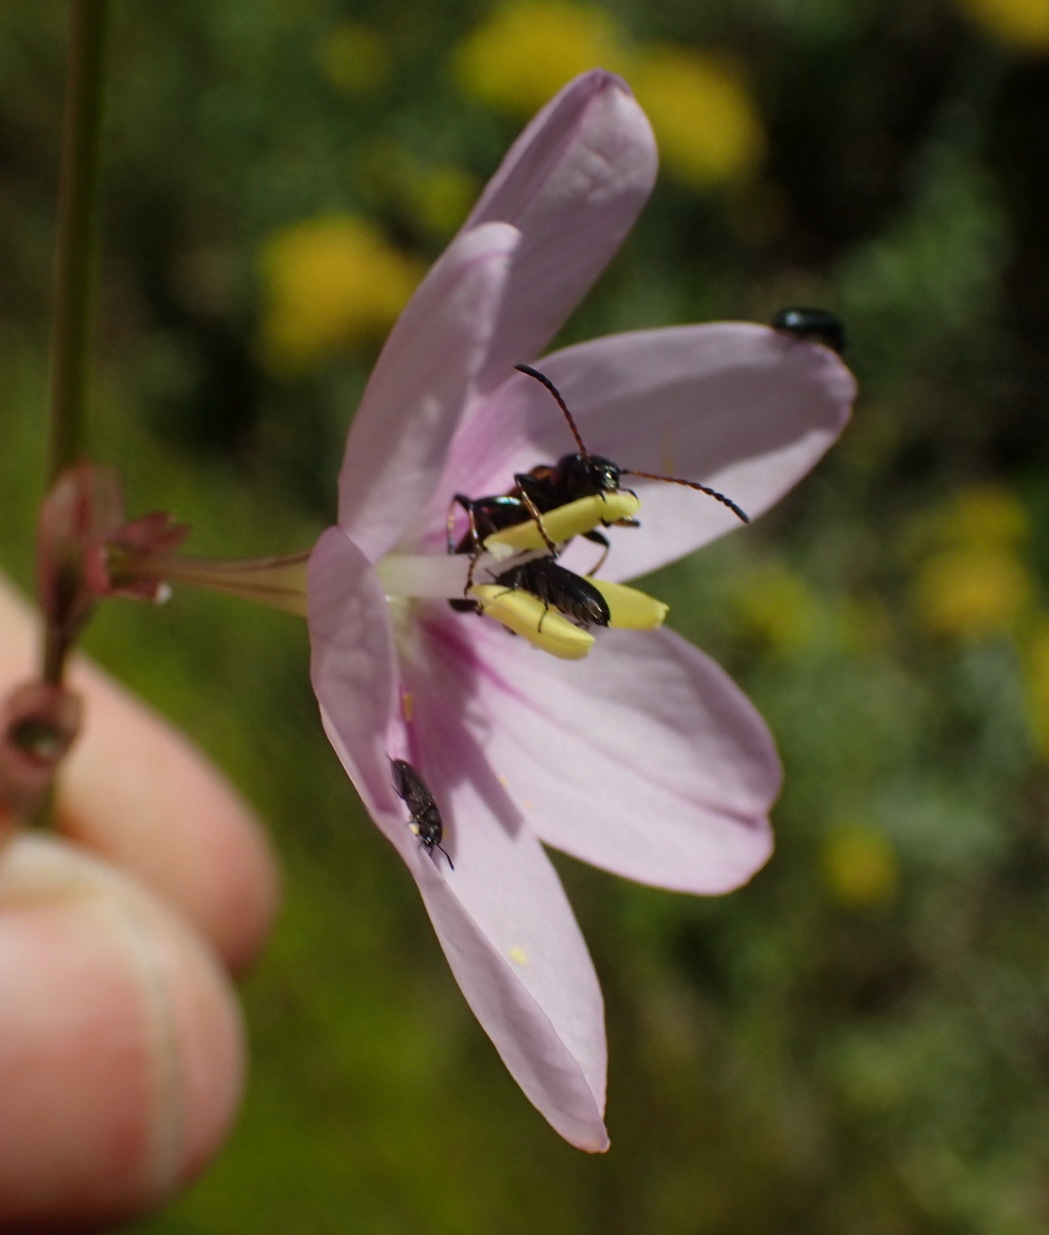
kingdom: Plantae
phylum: Tracheophyta
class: Liliopsida
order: Asparagales
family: Iridaceae
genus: Ixia
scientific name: Ixia orientalis
